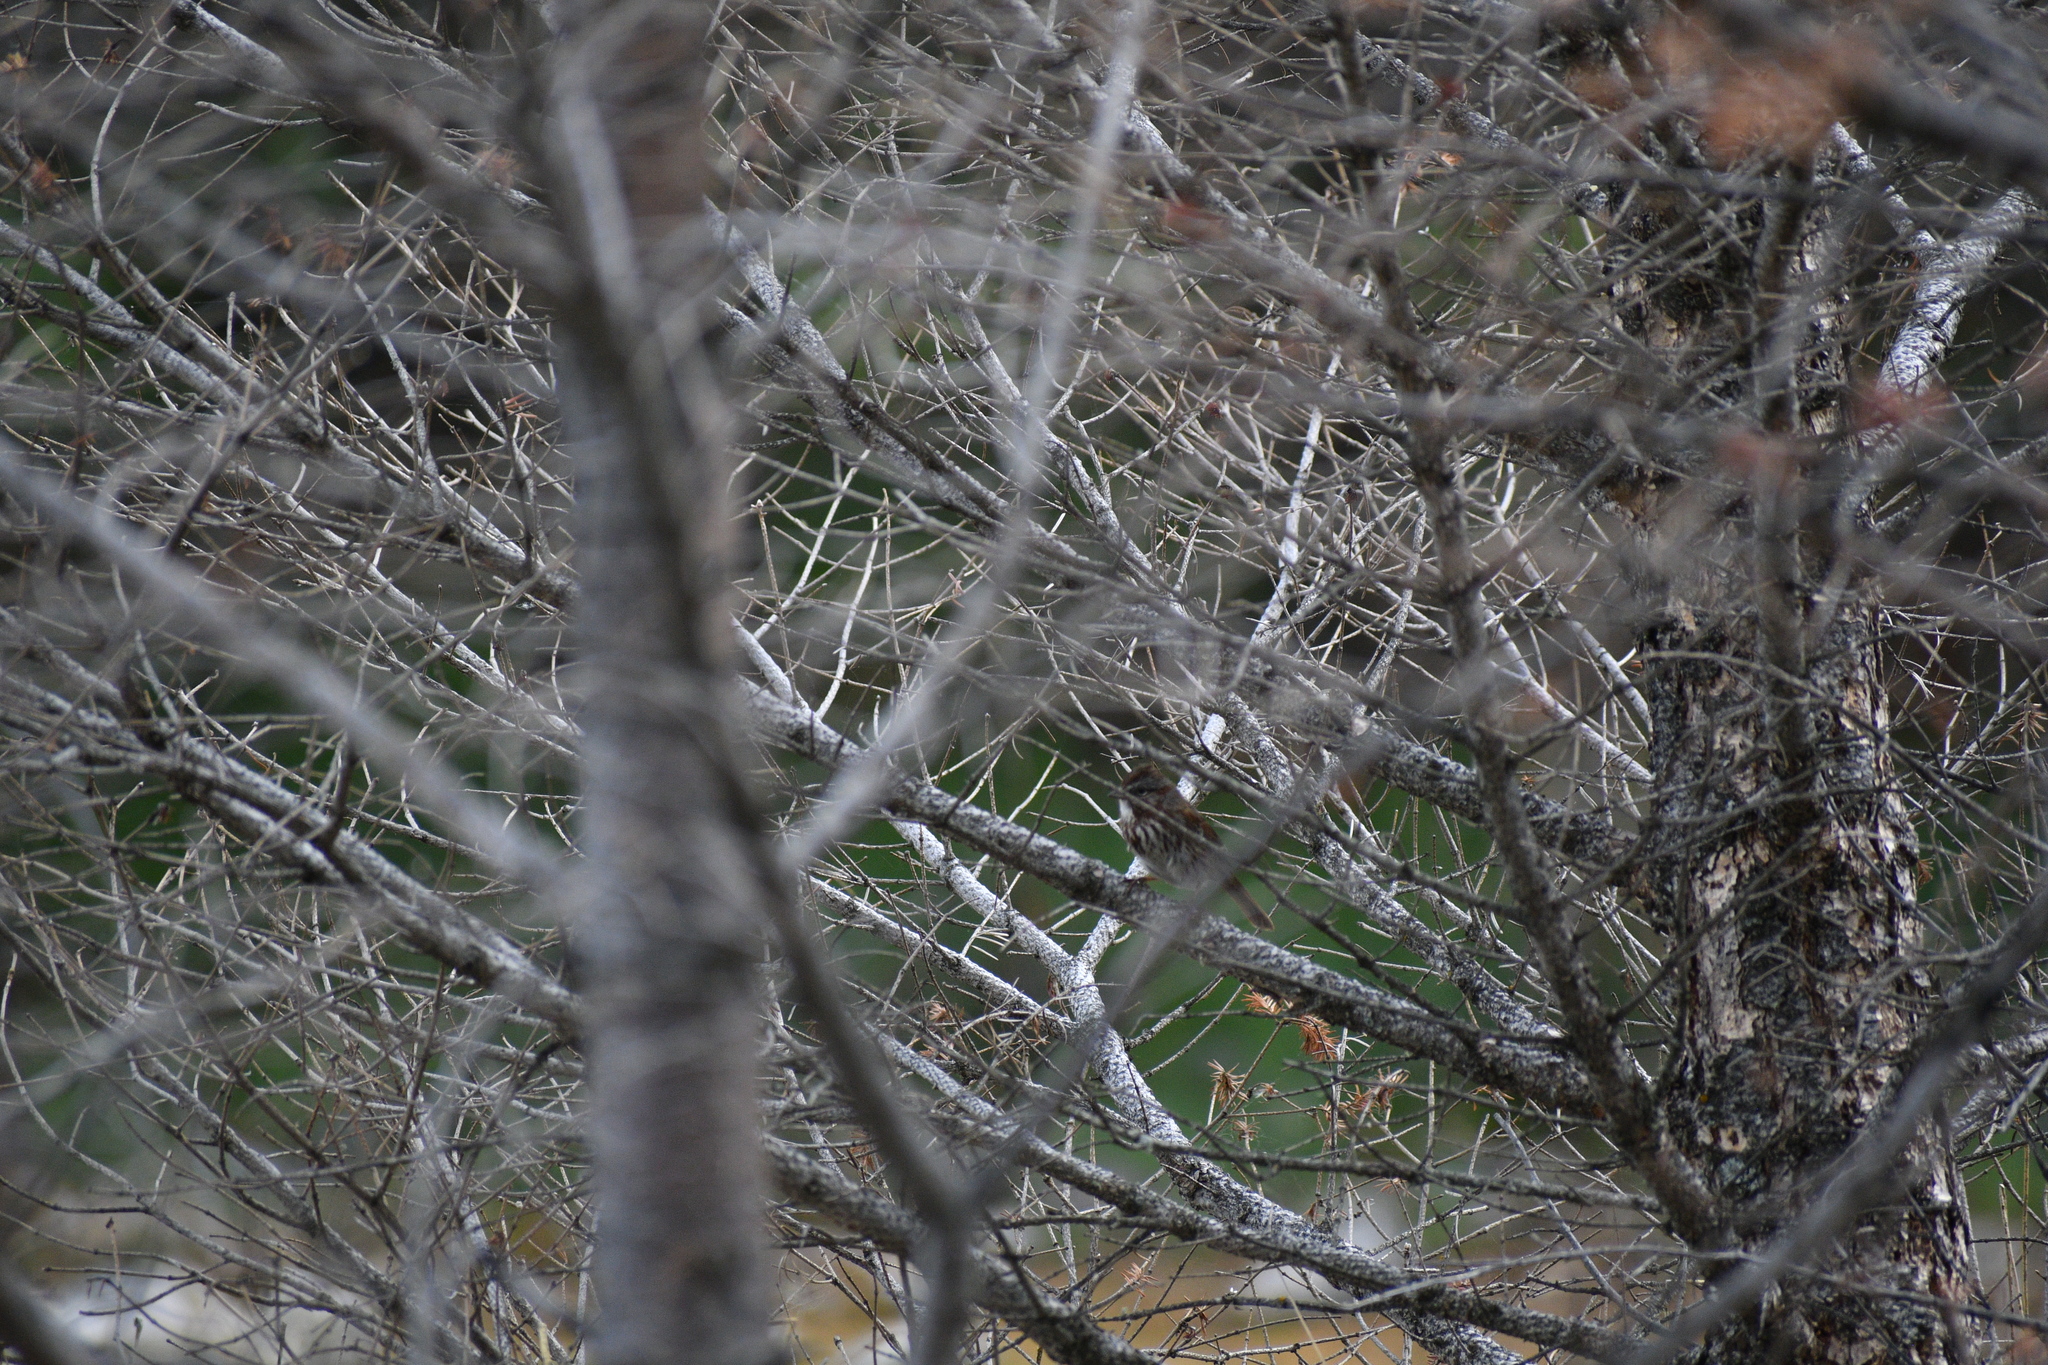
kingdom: Animalia
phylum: Chordata
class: Aves
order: Passeriformes
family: Passerellidae
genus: Melospiza
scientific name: Melospiza melodia
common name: Song sparrow
